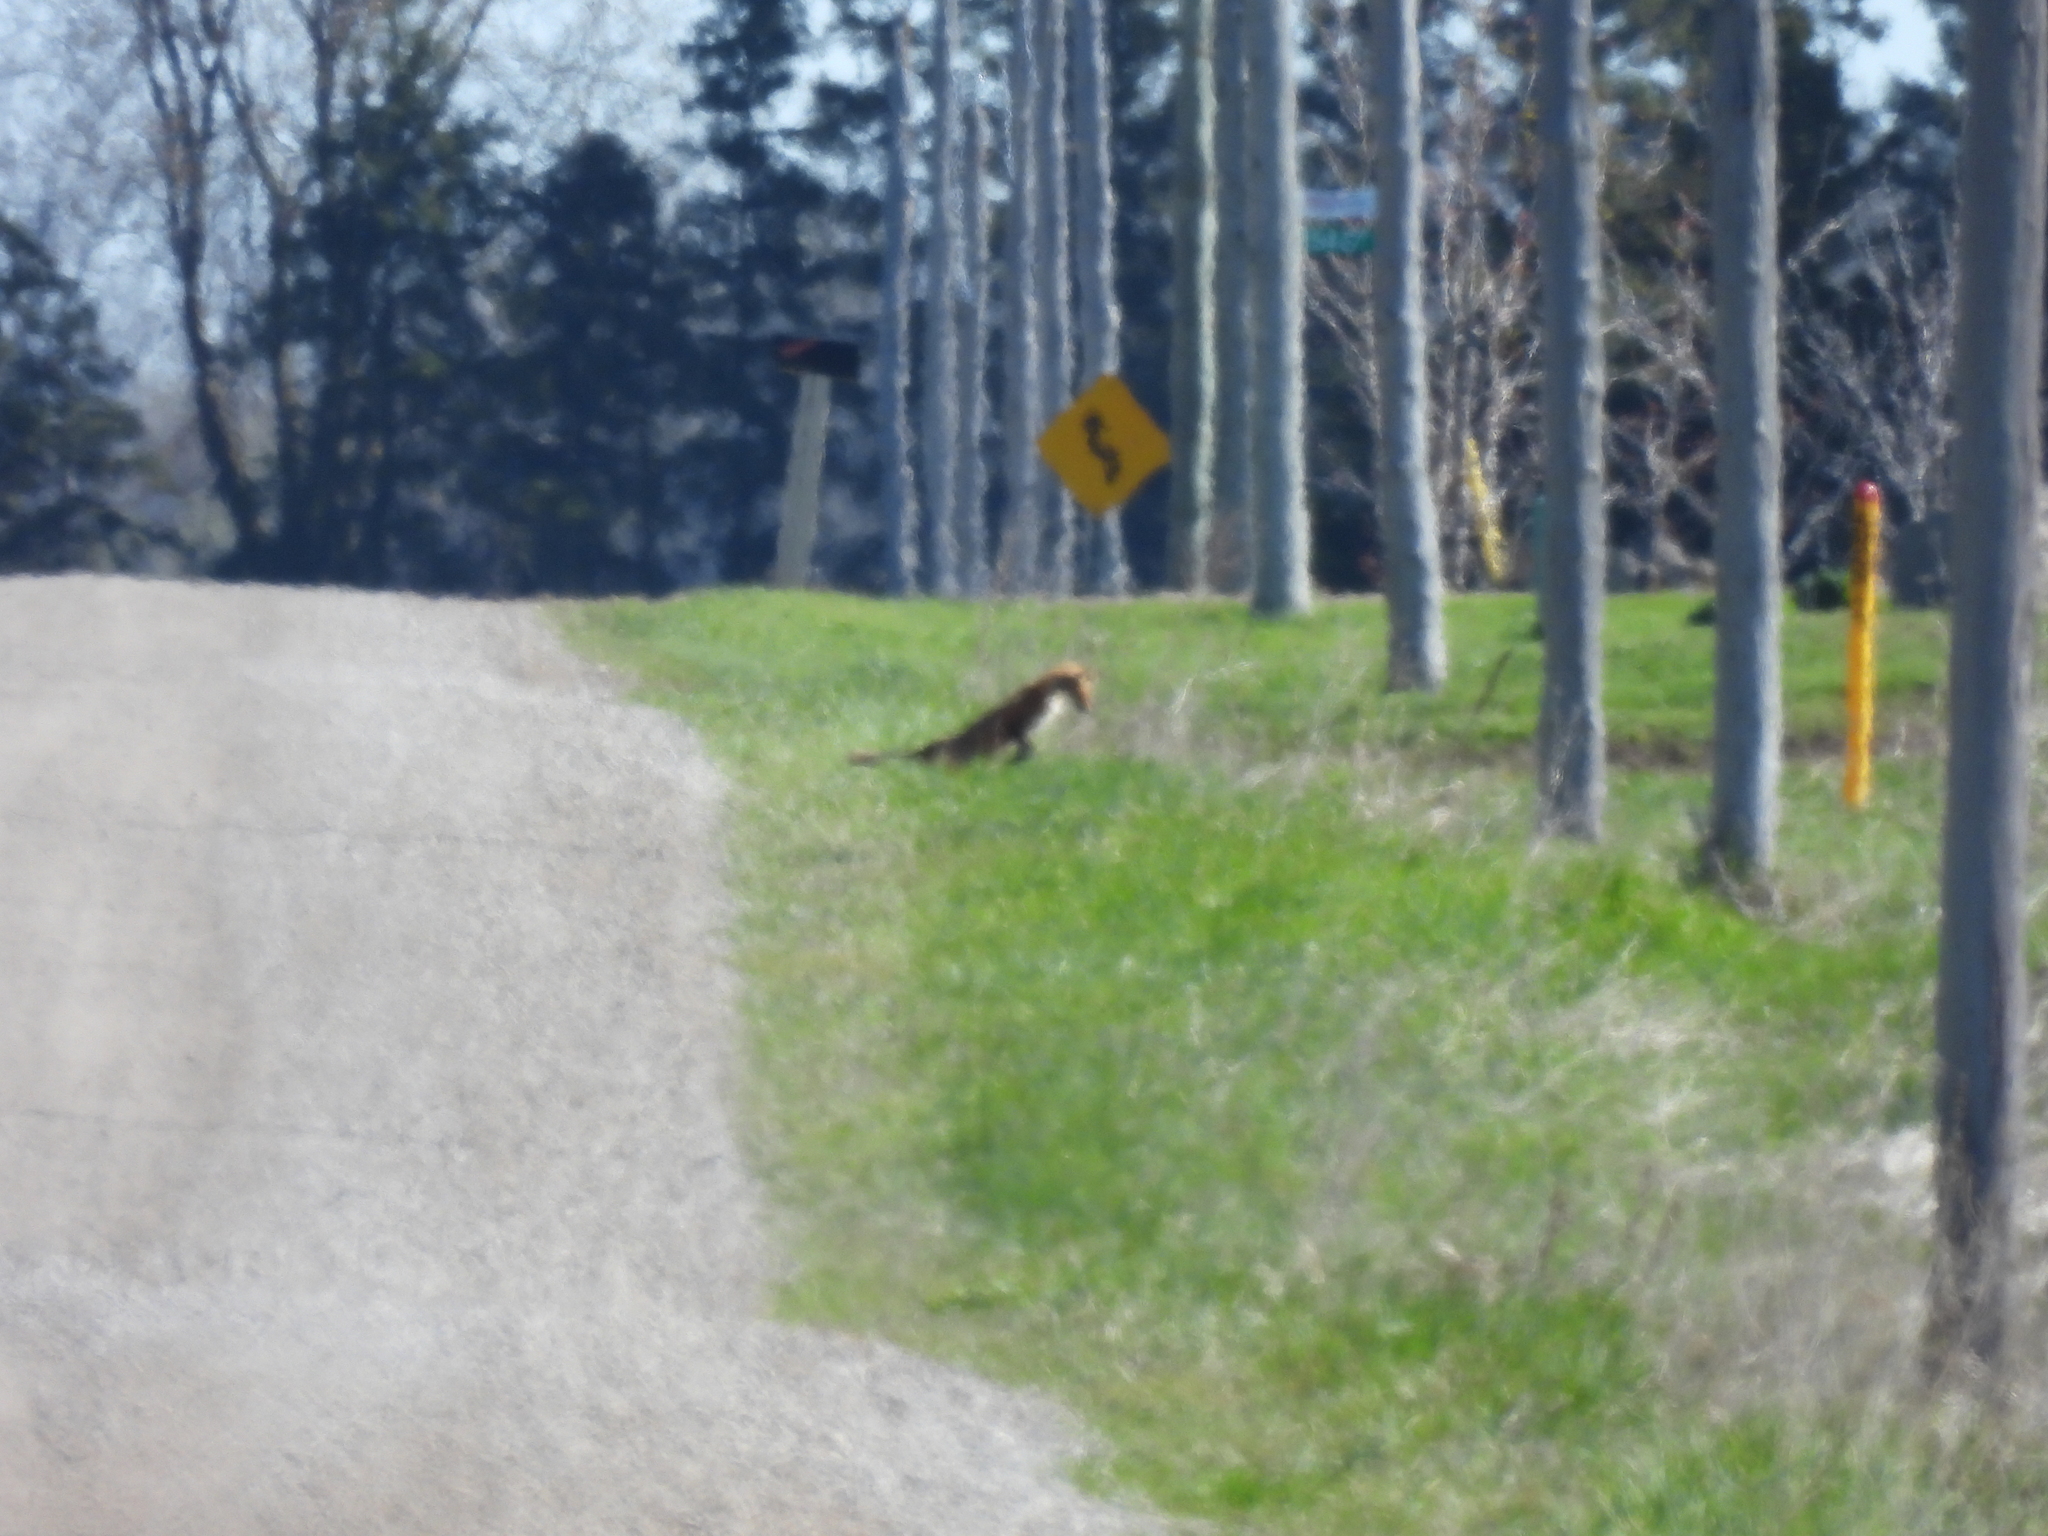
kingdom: Animalia
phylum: Chordata
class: Mammalia
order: Carnivora
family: Canidae
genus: Vulpes
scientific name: Vulpes vulpes
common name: Red fox
